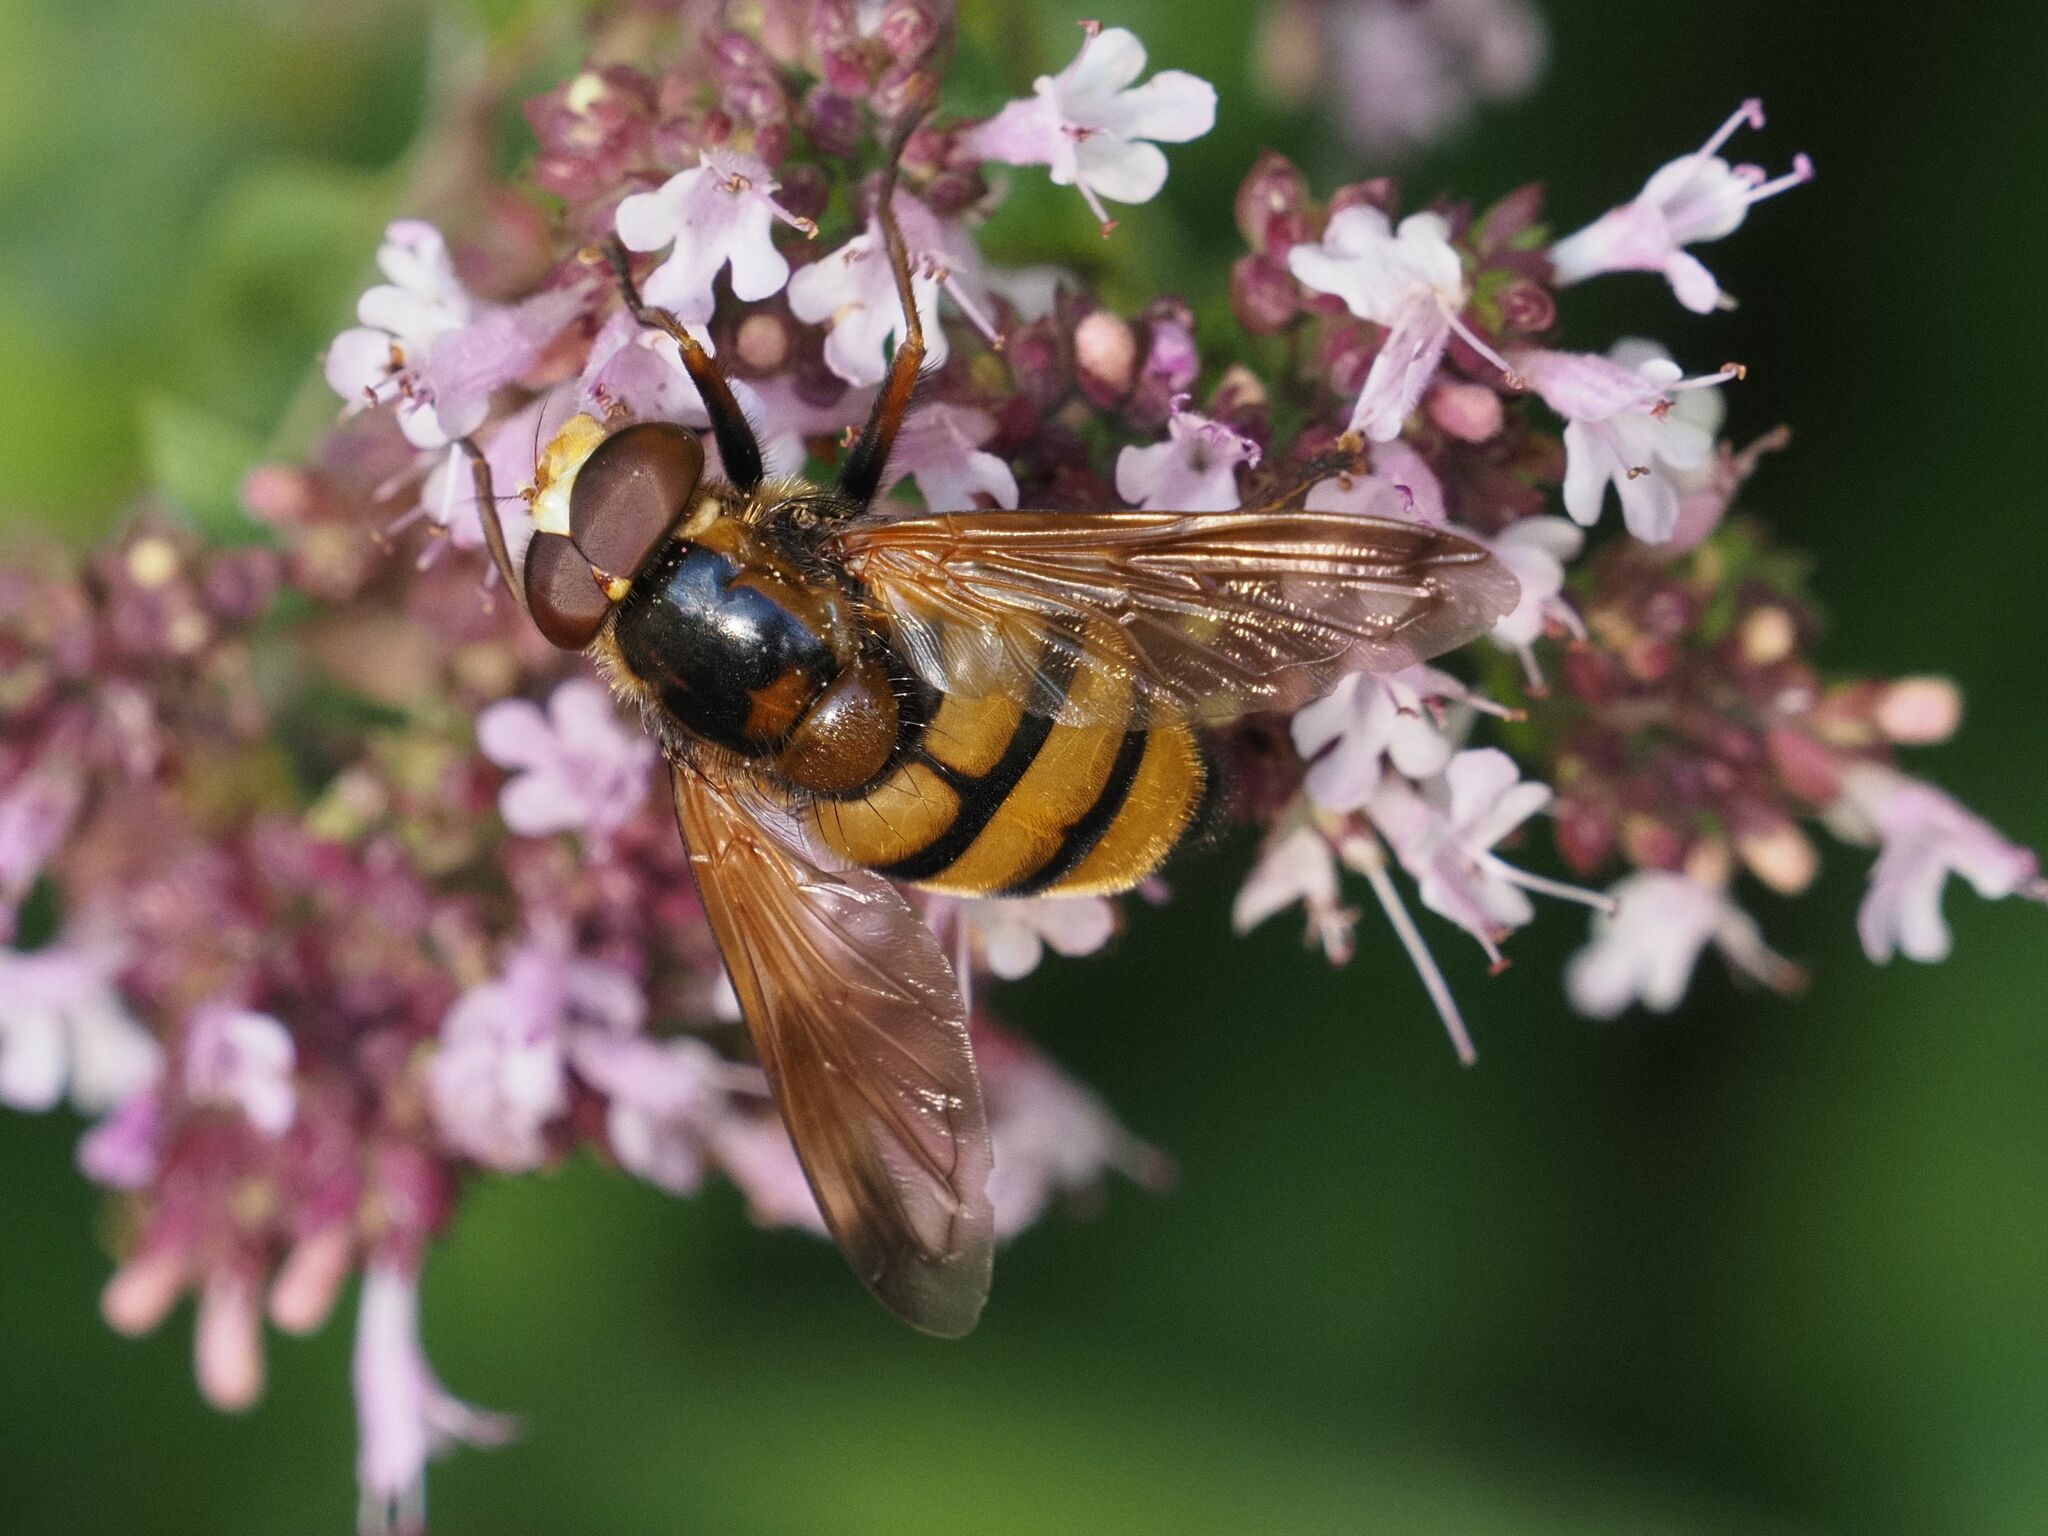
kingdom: Animalia
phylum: Arthropoda
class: Insecta
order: Diptera
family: Syrphidae
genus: Volucella
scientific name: Volucella inanis
